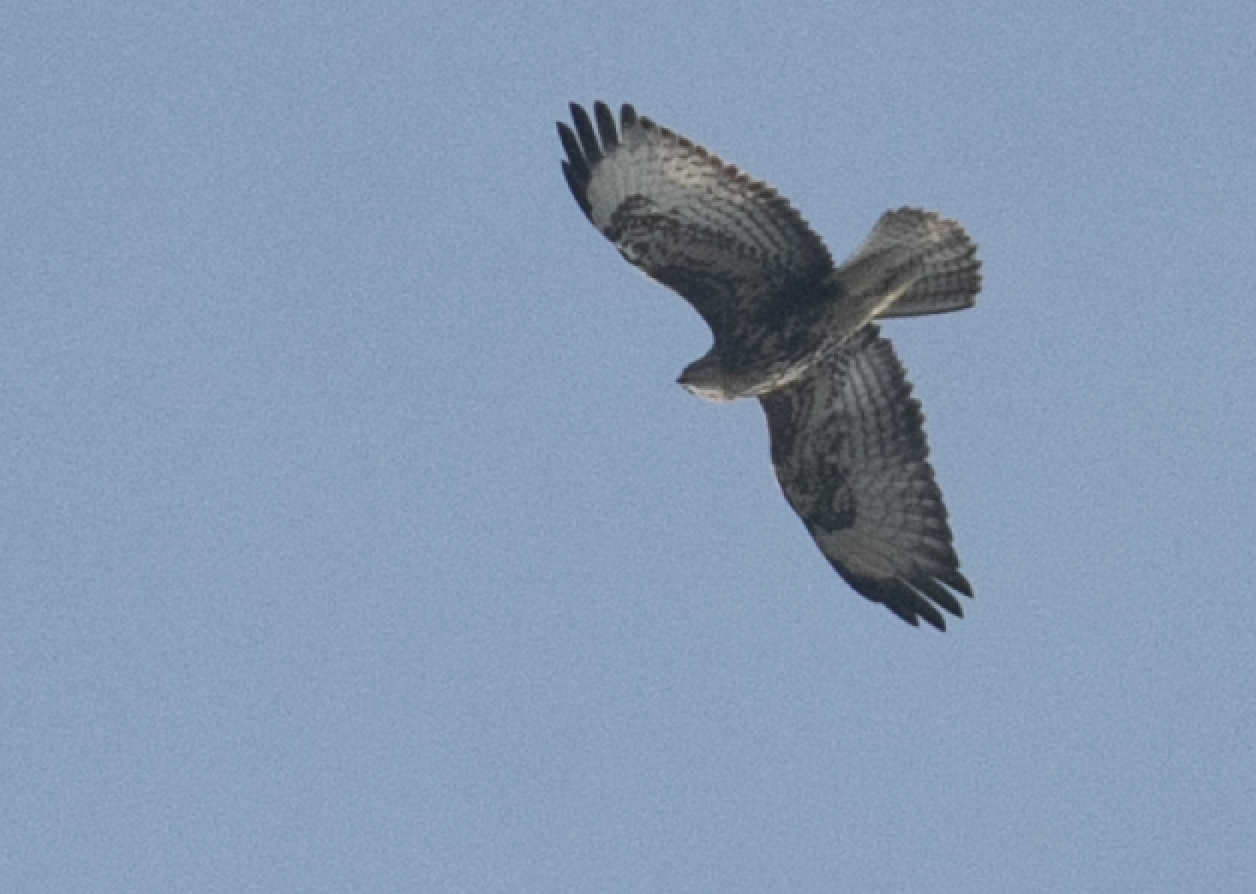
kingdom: Animalia
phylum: Chordata
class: Aves
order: Accipitriformes
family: Accipitridae
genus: Buteo
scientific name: Buteo buteo
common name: Common buzzard
